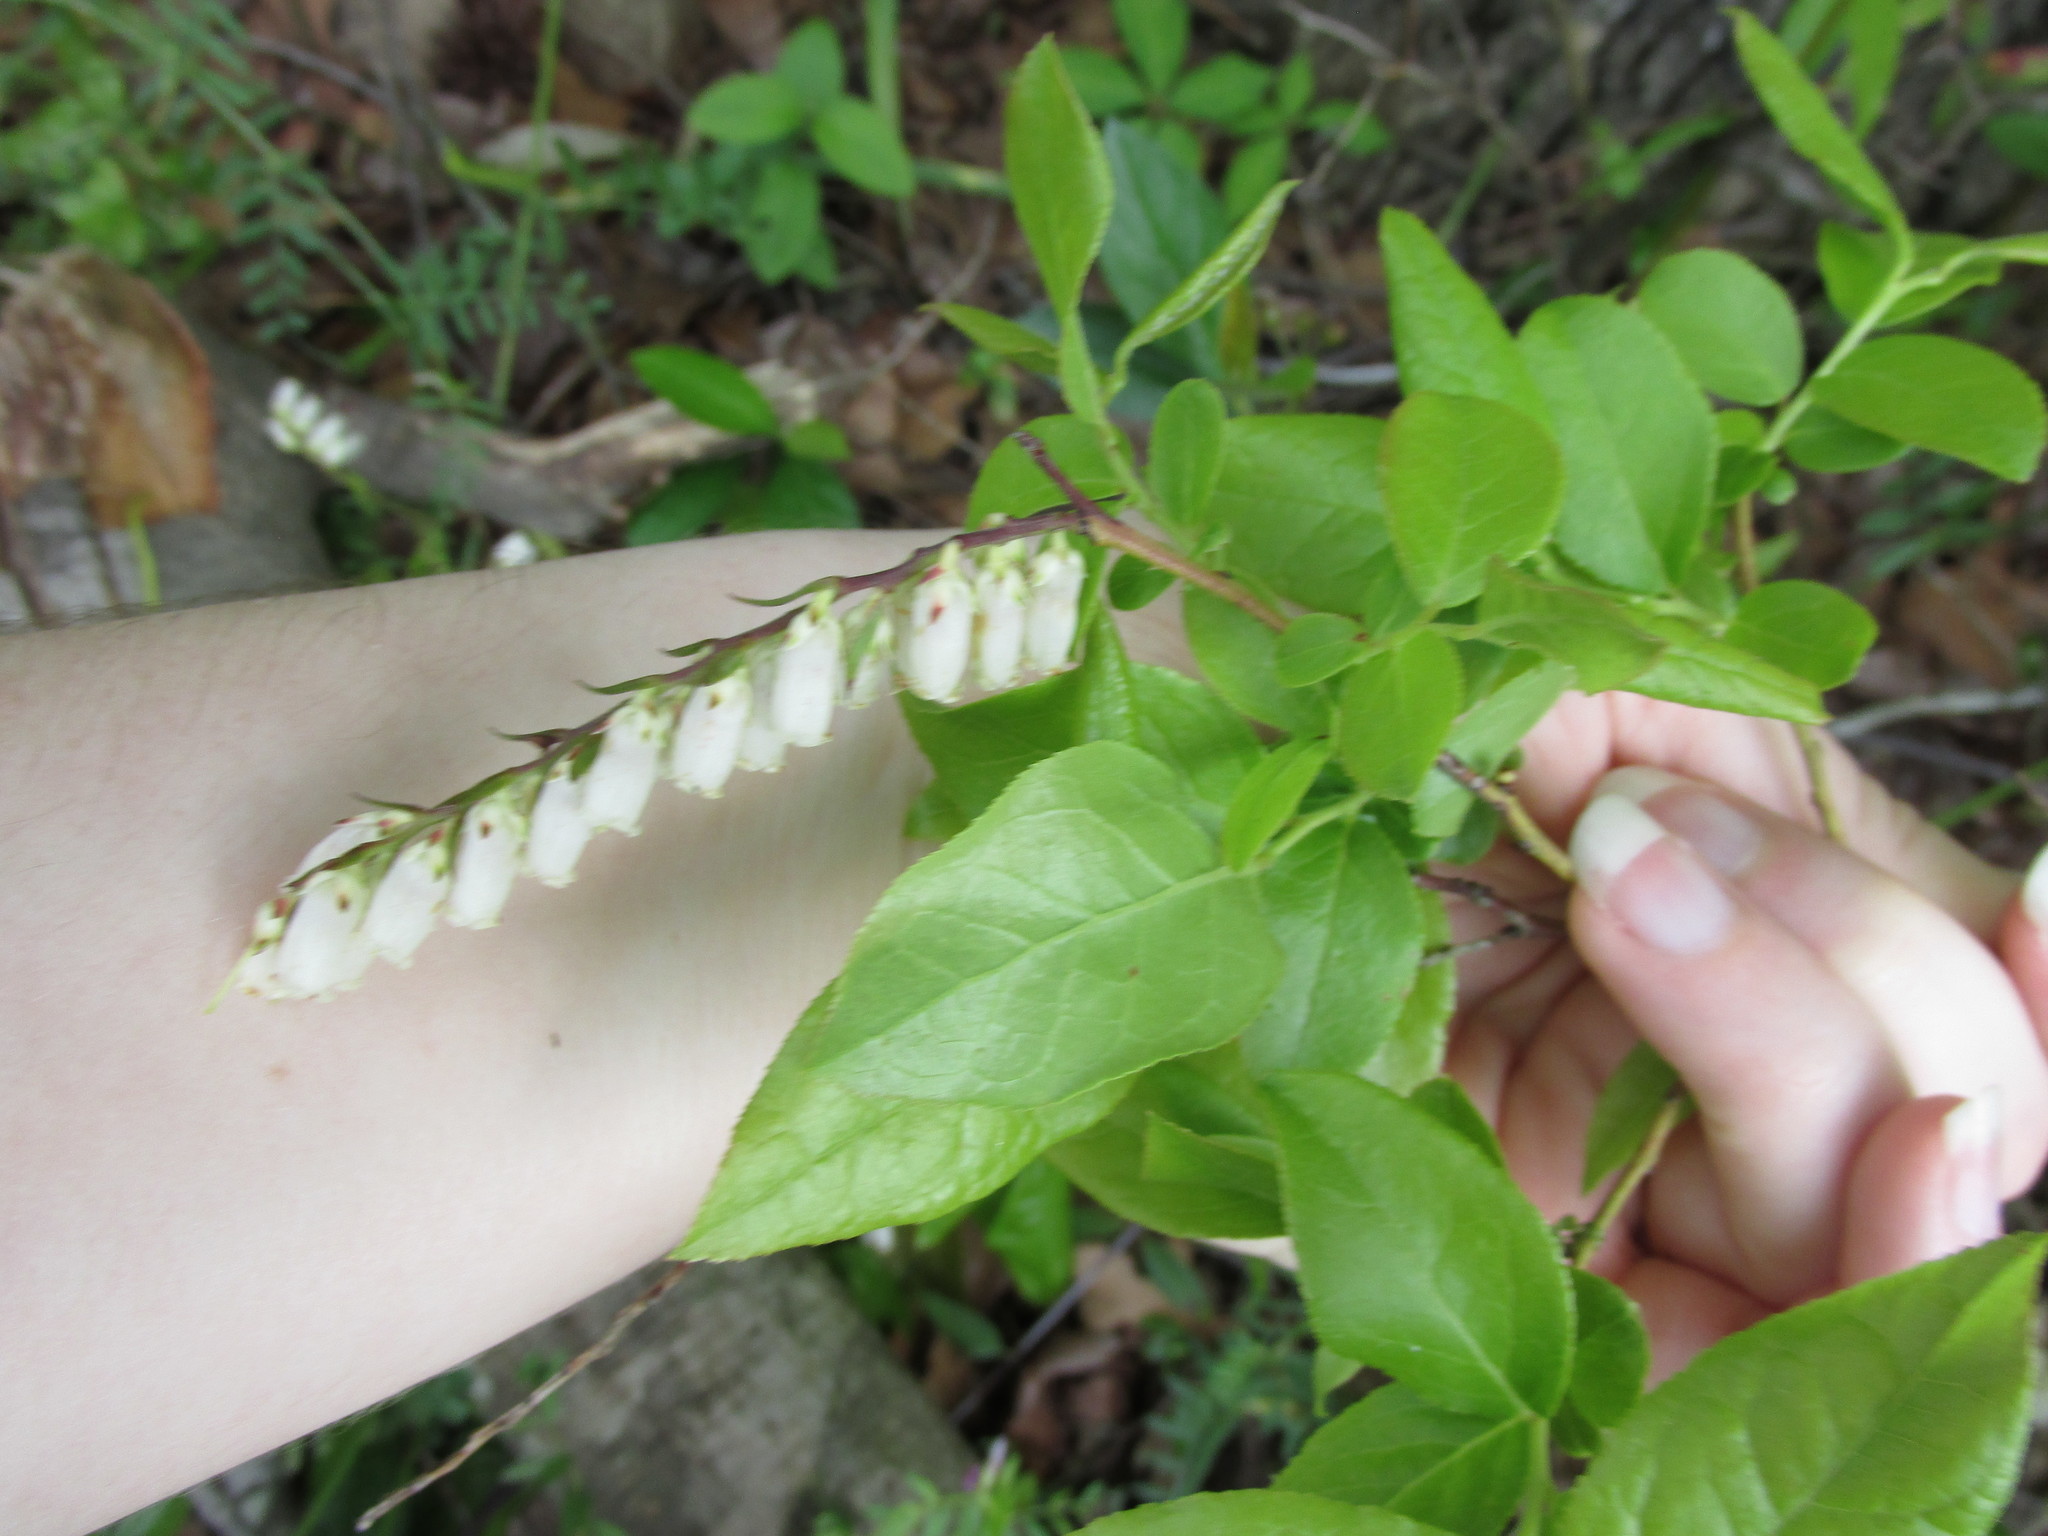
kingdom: Plantae
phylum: Tracheophyta
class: Magnoliopsida
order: Ericales
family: Ericaceae
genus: Eubotrys
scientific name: Eubotrys racemosa
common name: Fetterbush
